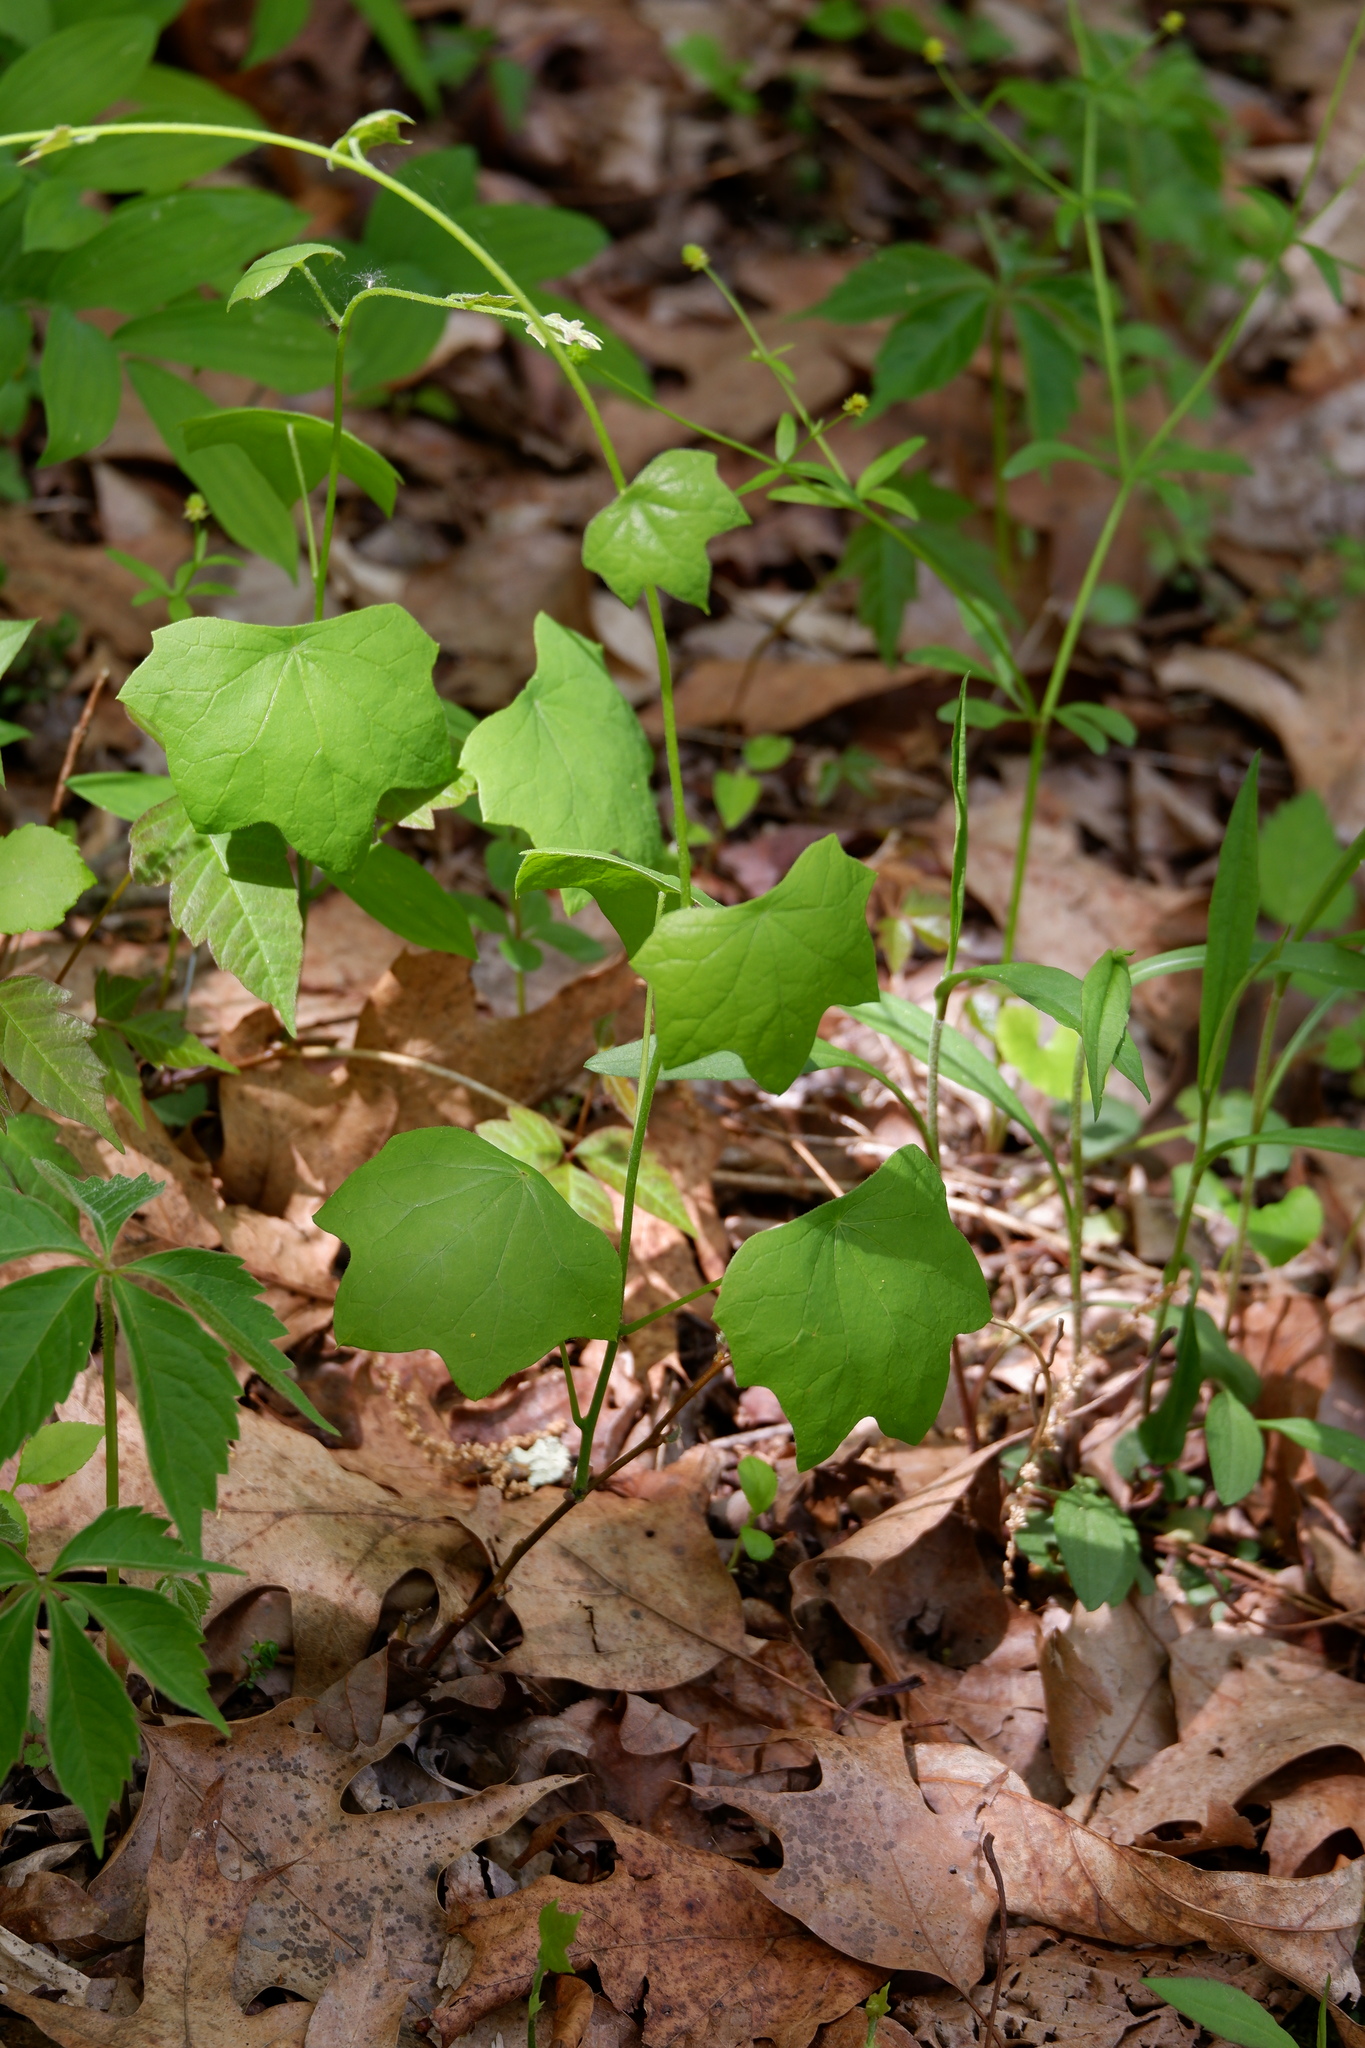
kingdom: Plantae
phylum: Tracheophyta
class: Magnoliopsida
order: Ranunculales
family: Menispermaceae
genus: Menispermum
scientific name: Menispermum canadense
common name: Moonseed
